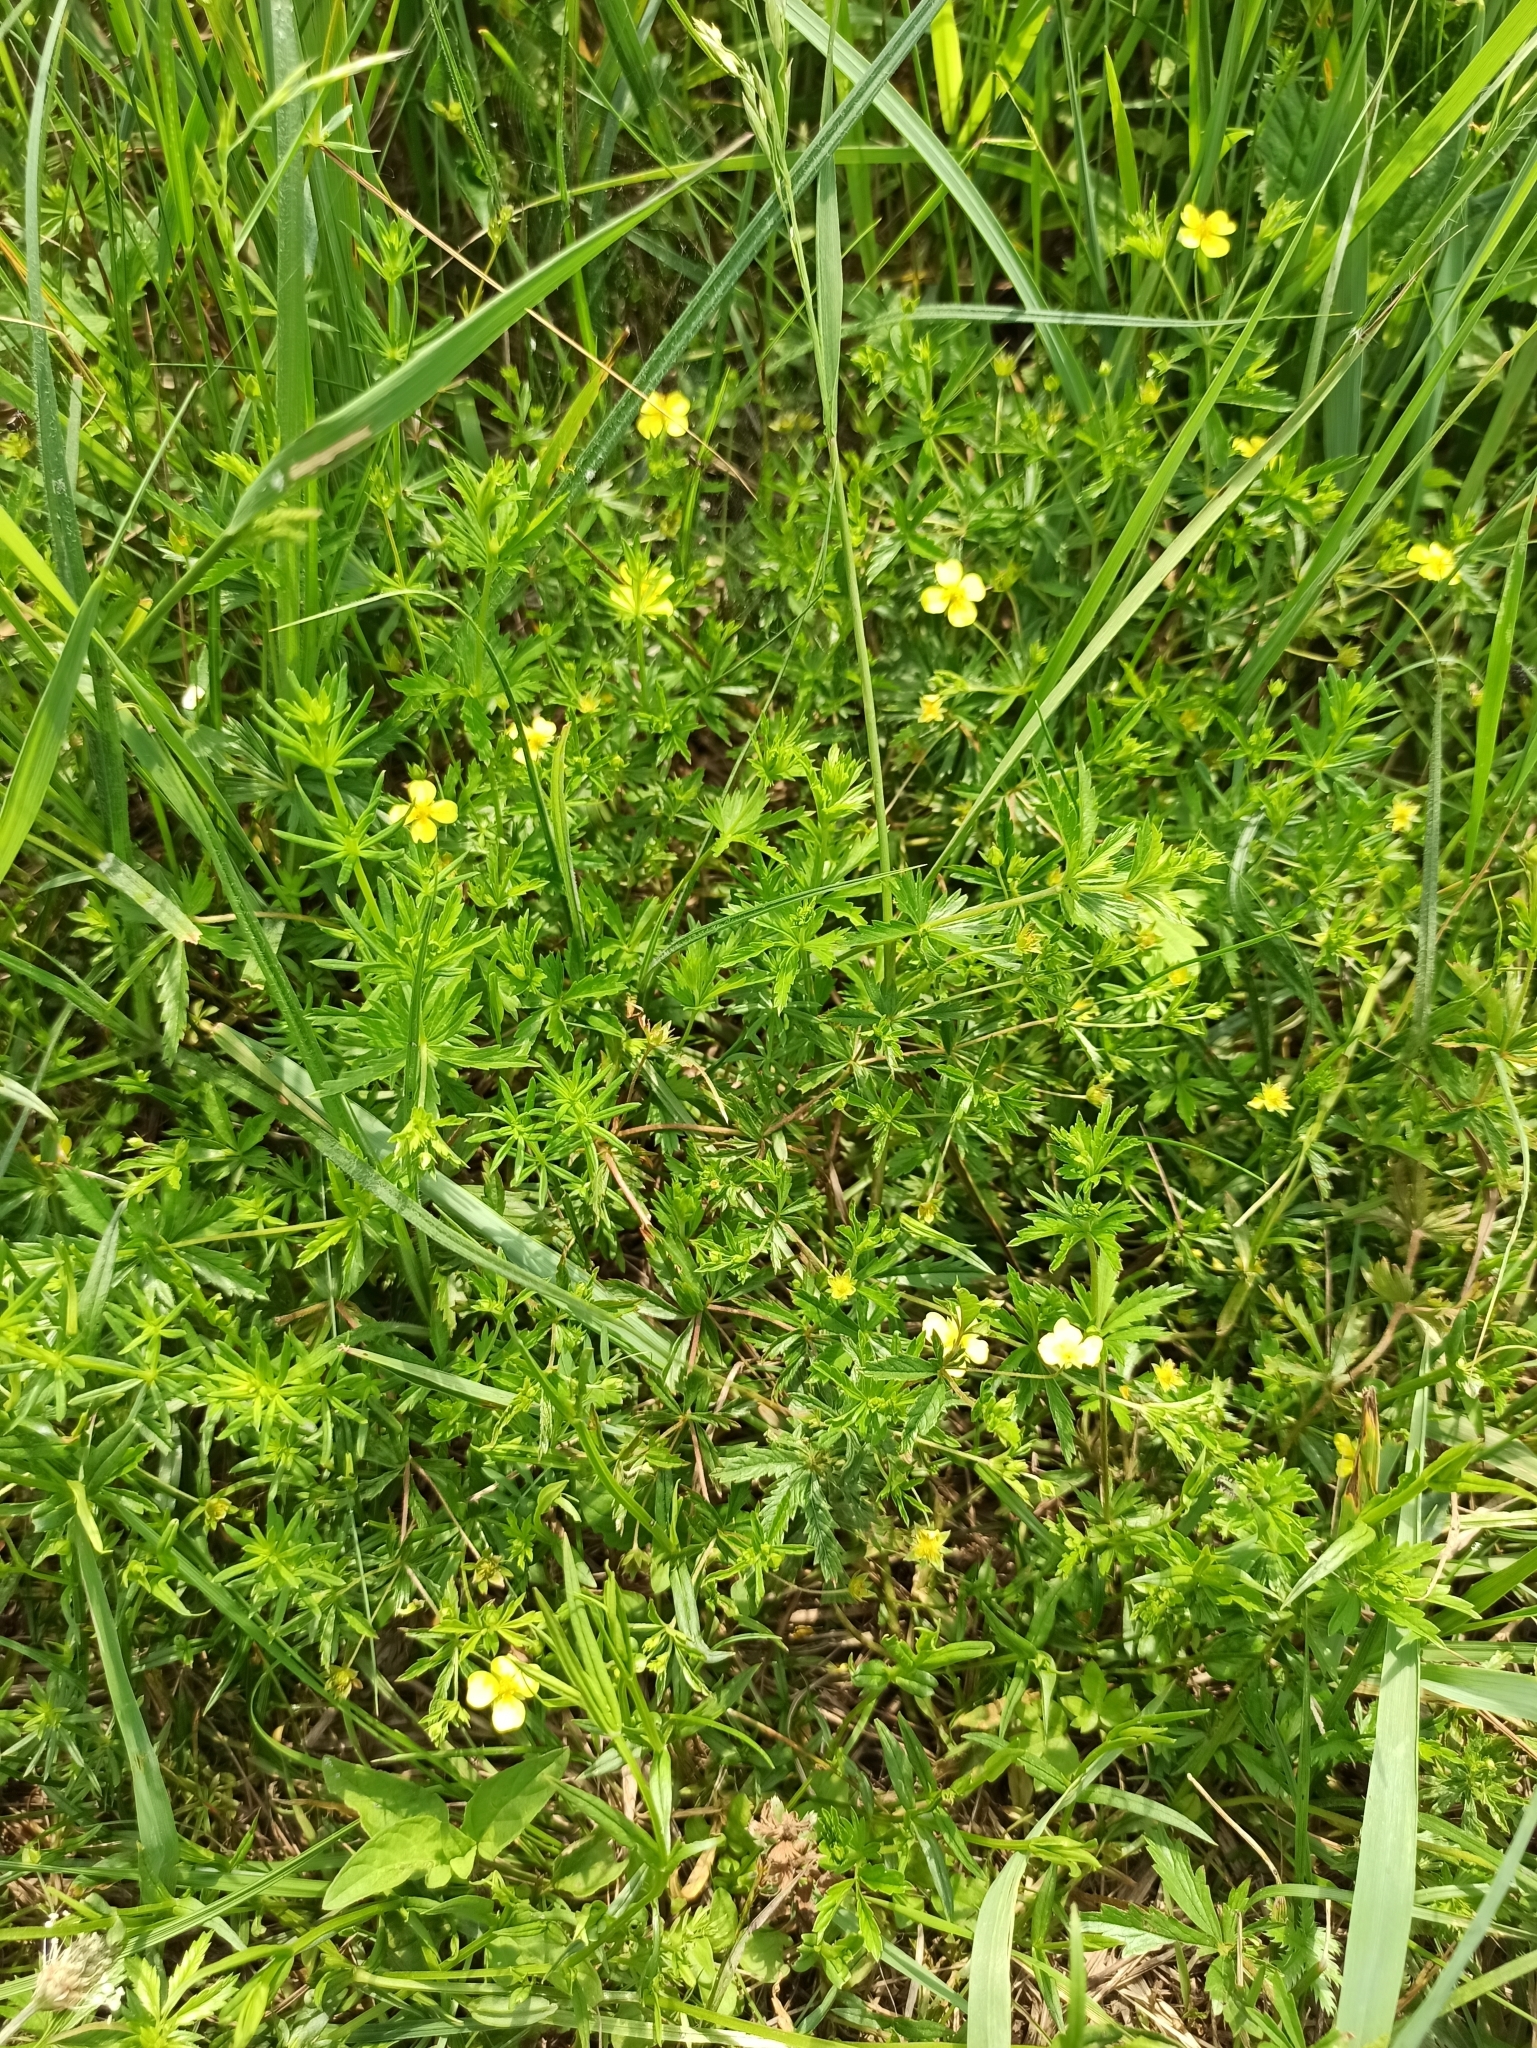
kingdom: Plantae
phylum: Tracheophyta
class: Magnoliopsida
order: Rosales
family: Rosaceae
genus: Potentilla
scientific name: Potentilla erecta
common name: Tormentil
